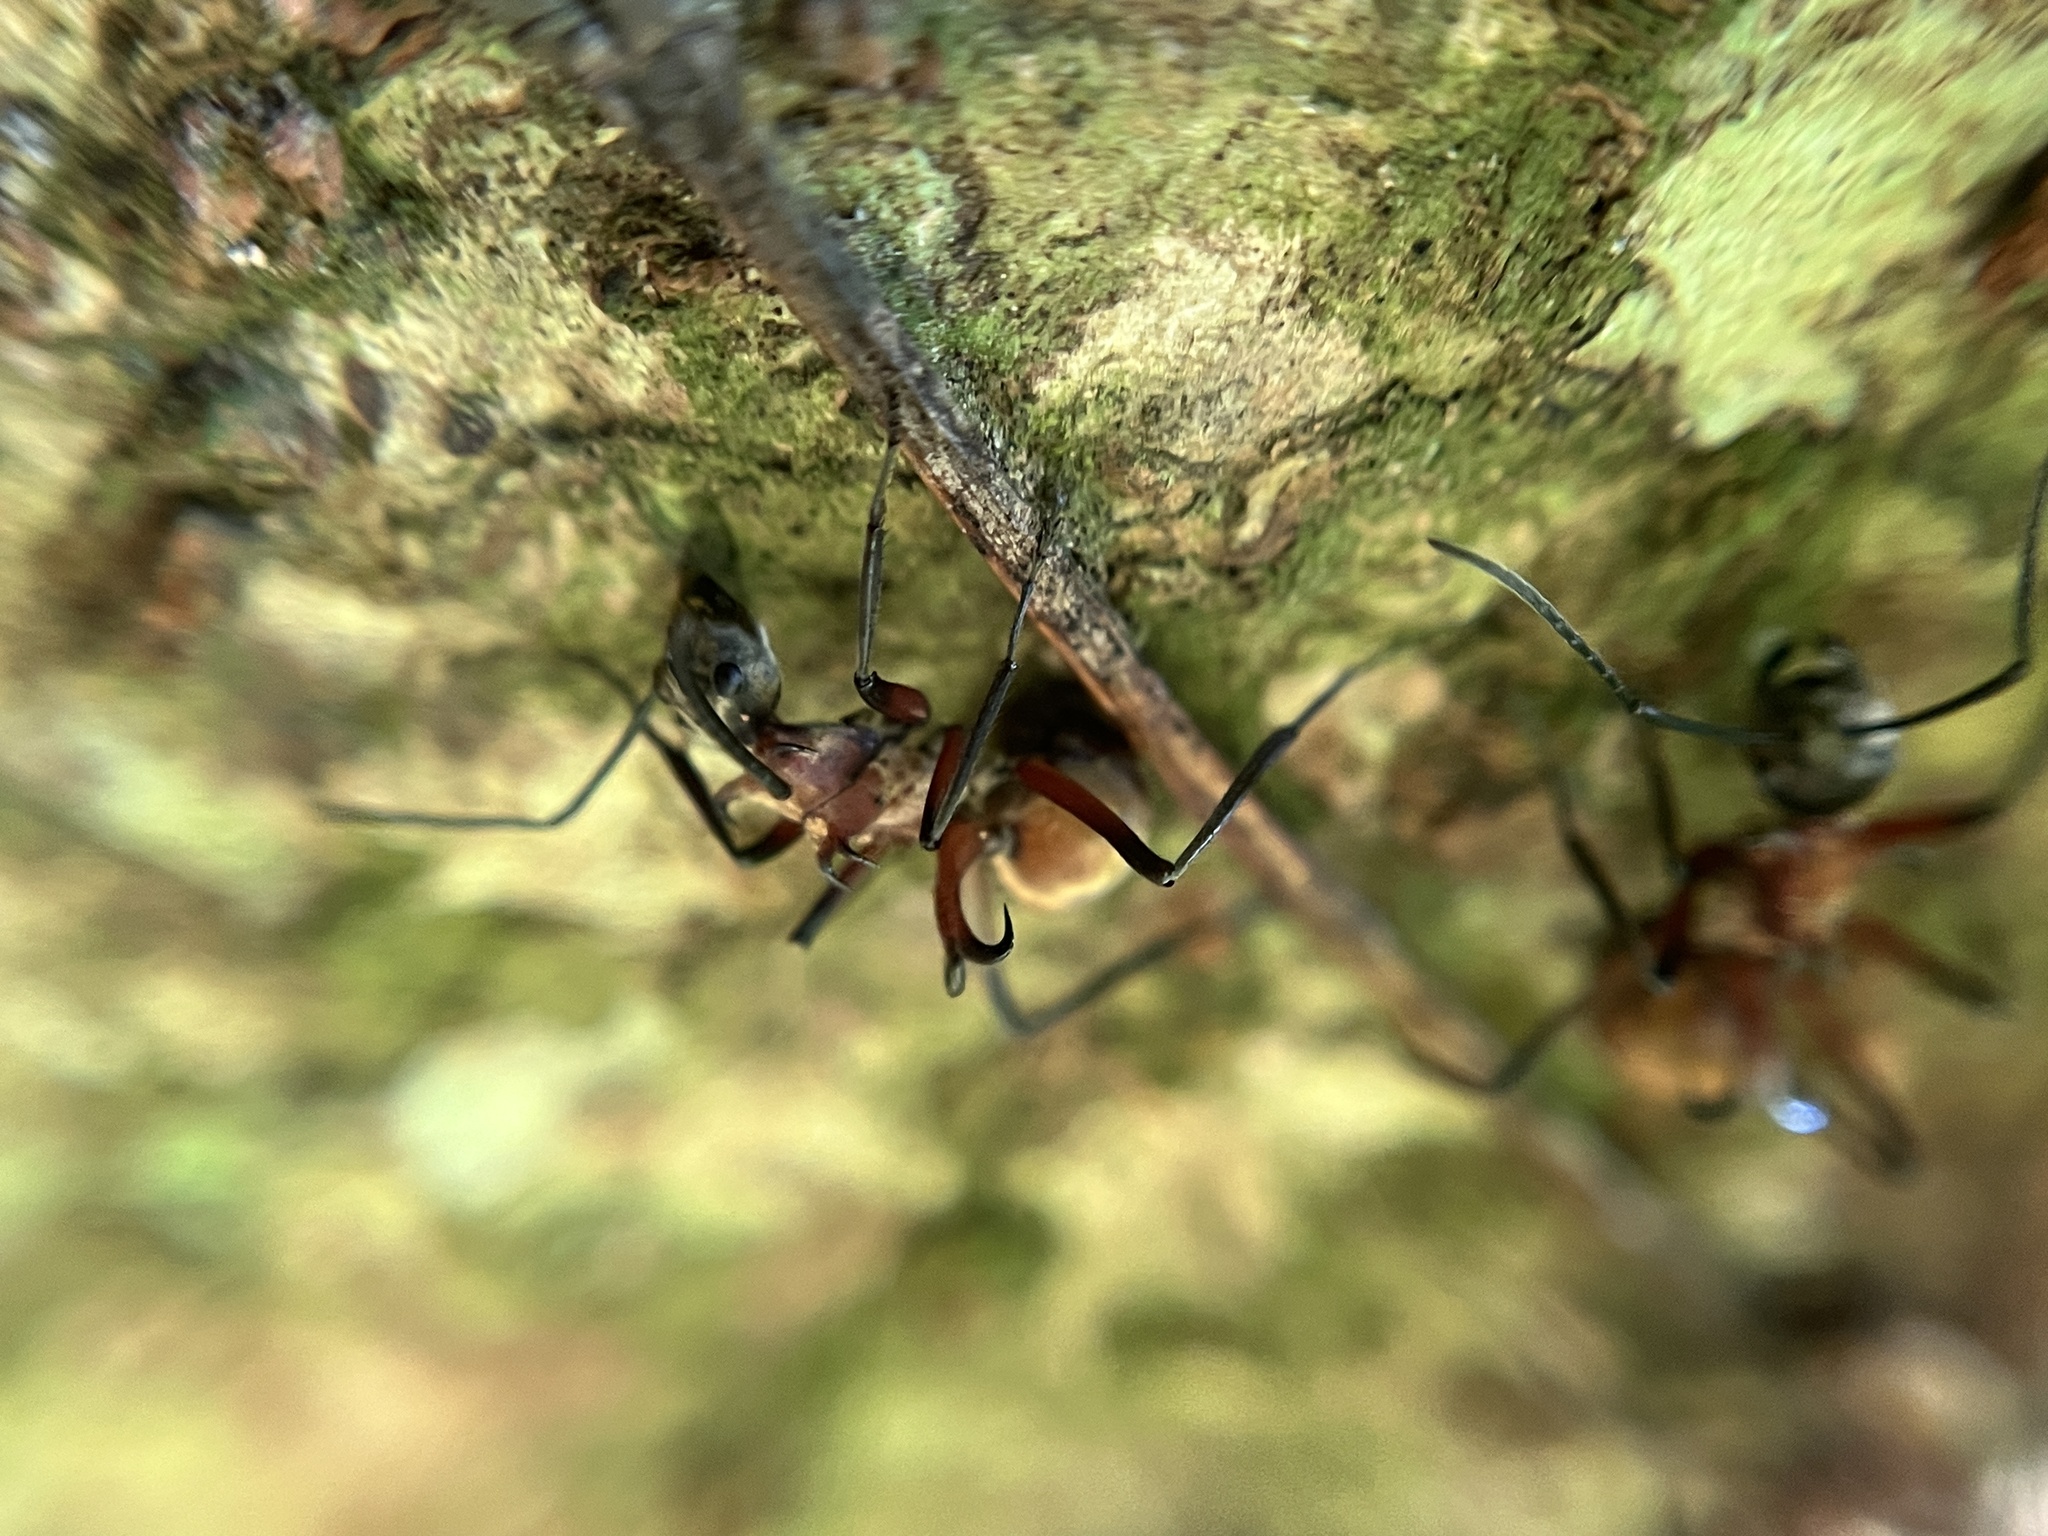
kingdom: Animalia
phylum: Arthropoda
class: Insecta
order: Hymenoptera
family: Formicidae
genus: Polyrhachis
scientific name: Polyrhachis bihamata
